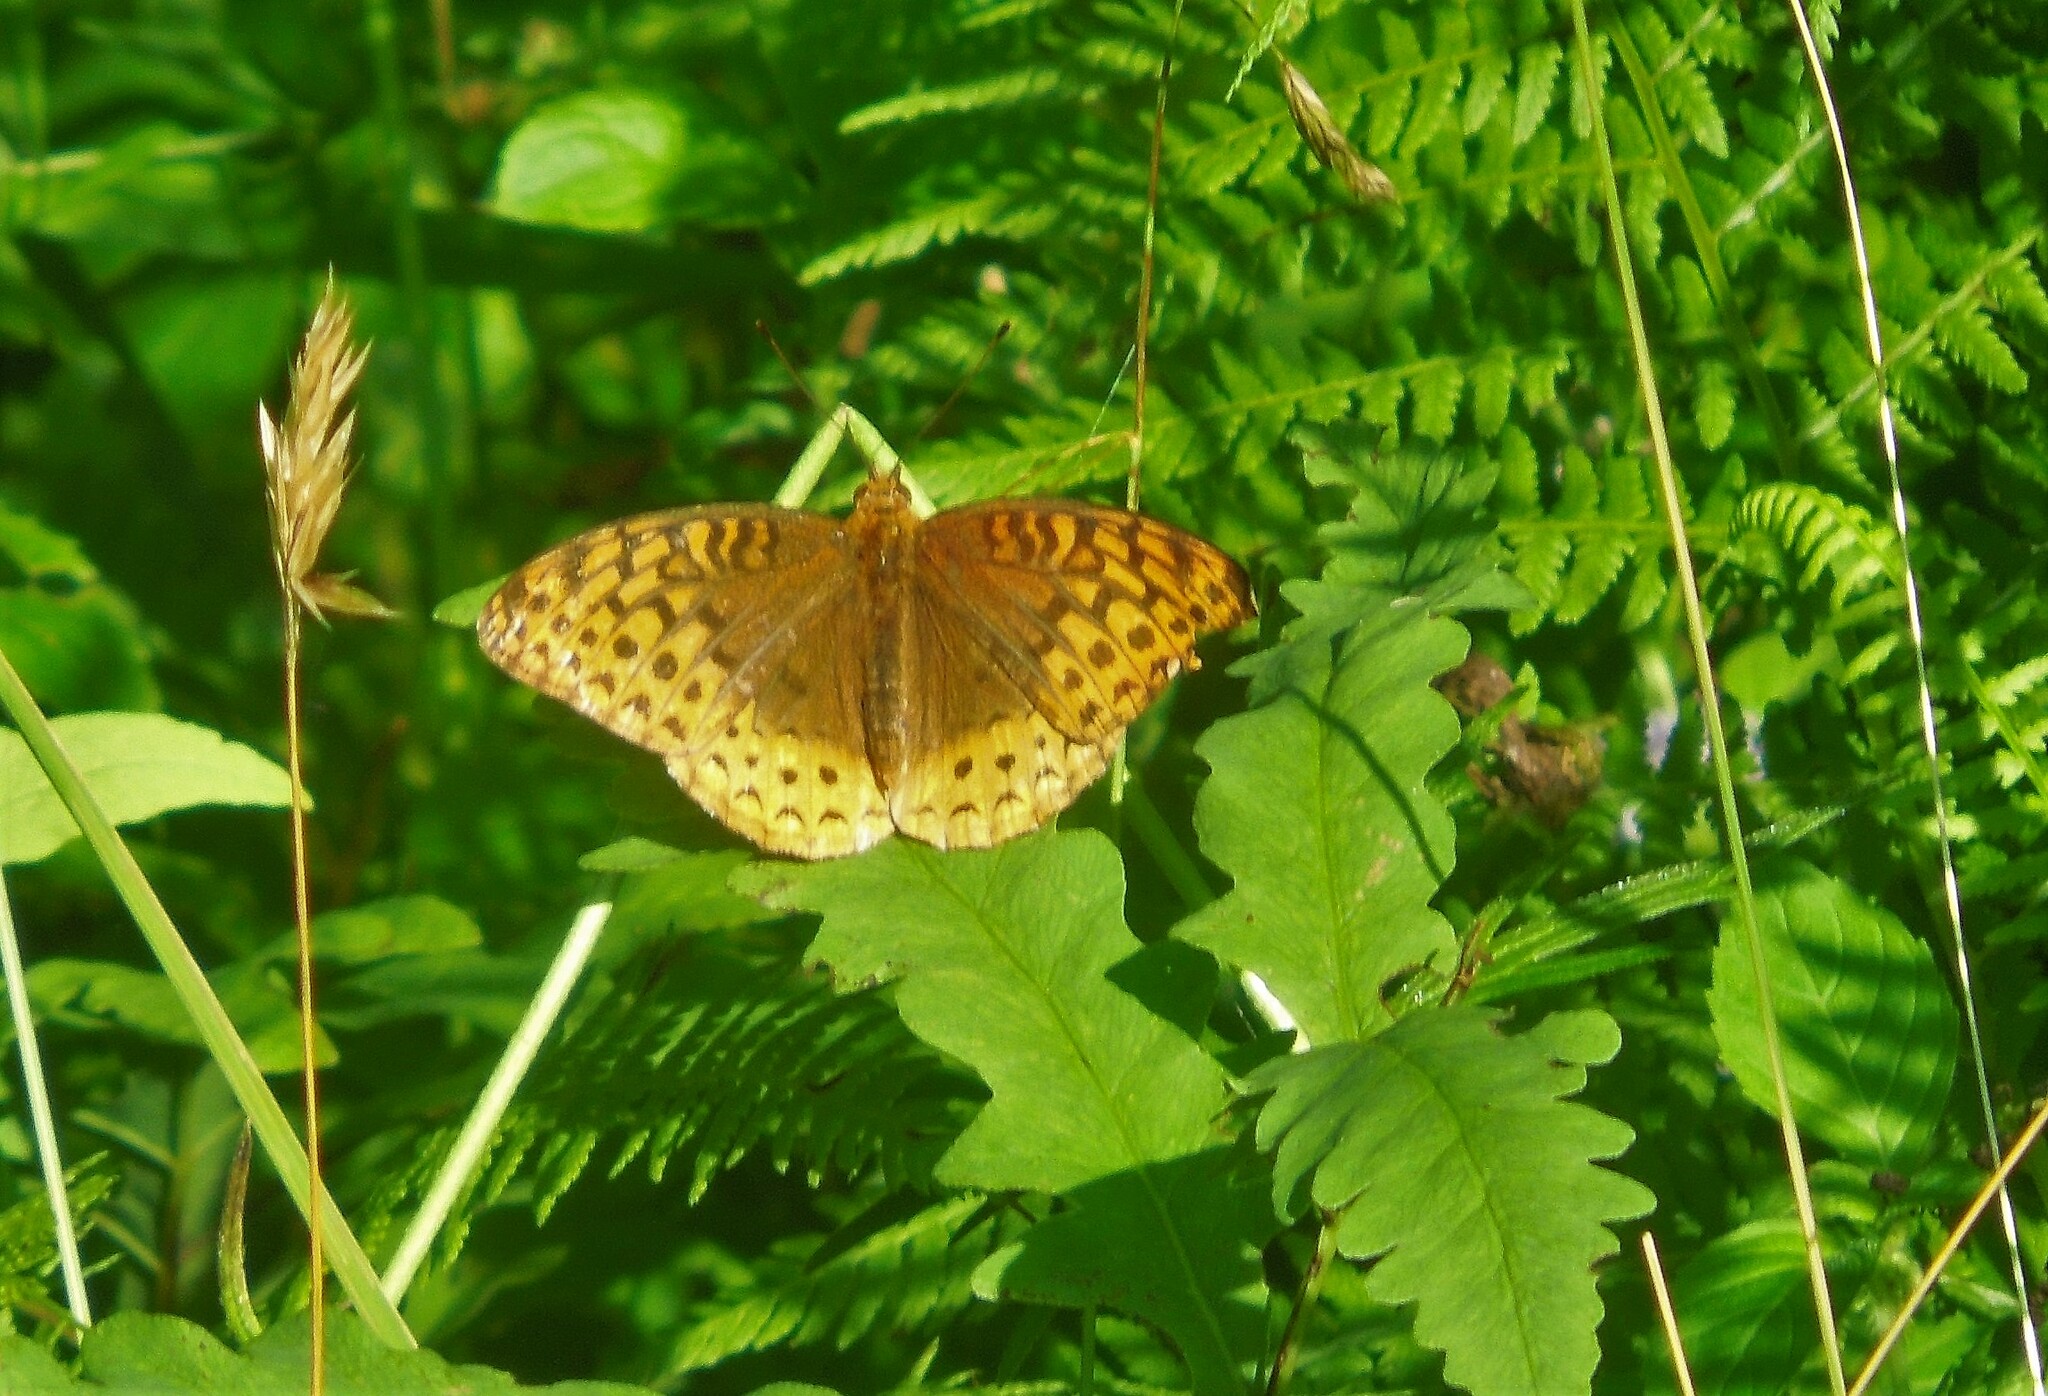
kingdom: Animalia
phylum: Arthropoda
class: Insecta
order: Lepidoptera
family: Nymphalidae
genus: Speyeria
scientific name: Speyeria cybele
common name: Great spangled fritillary
